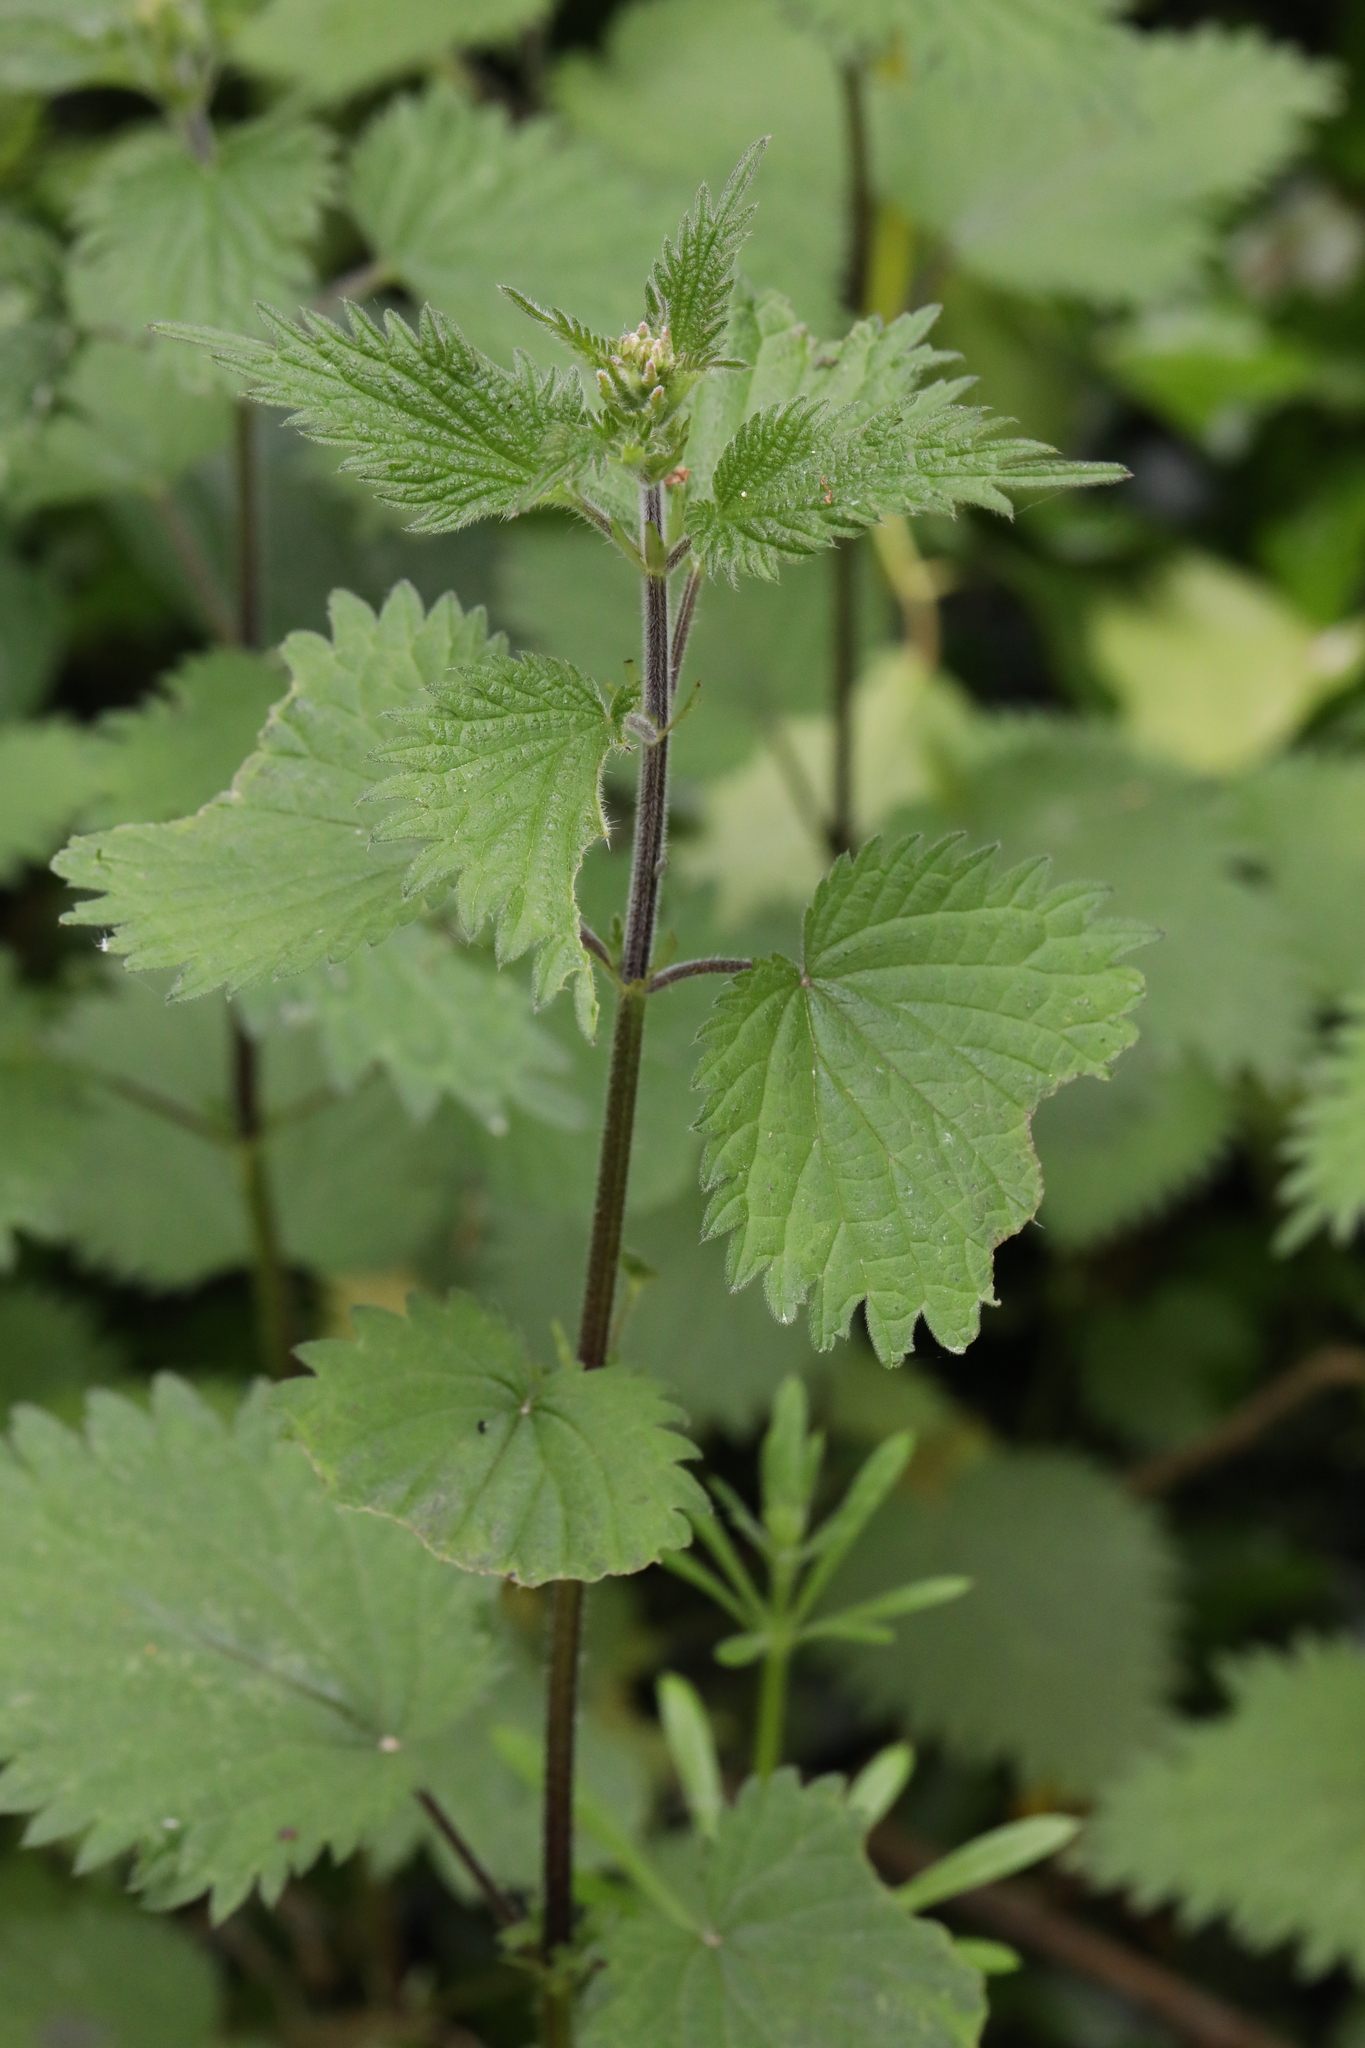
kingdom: Plantae
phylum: Tracheophyta
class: Magnoliopsida
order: Rosales
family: Urticaceae
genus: Urtica
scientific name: Urtica dioica
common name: Common nettle
